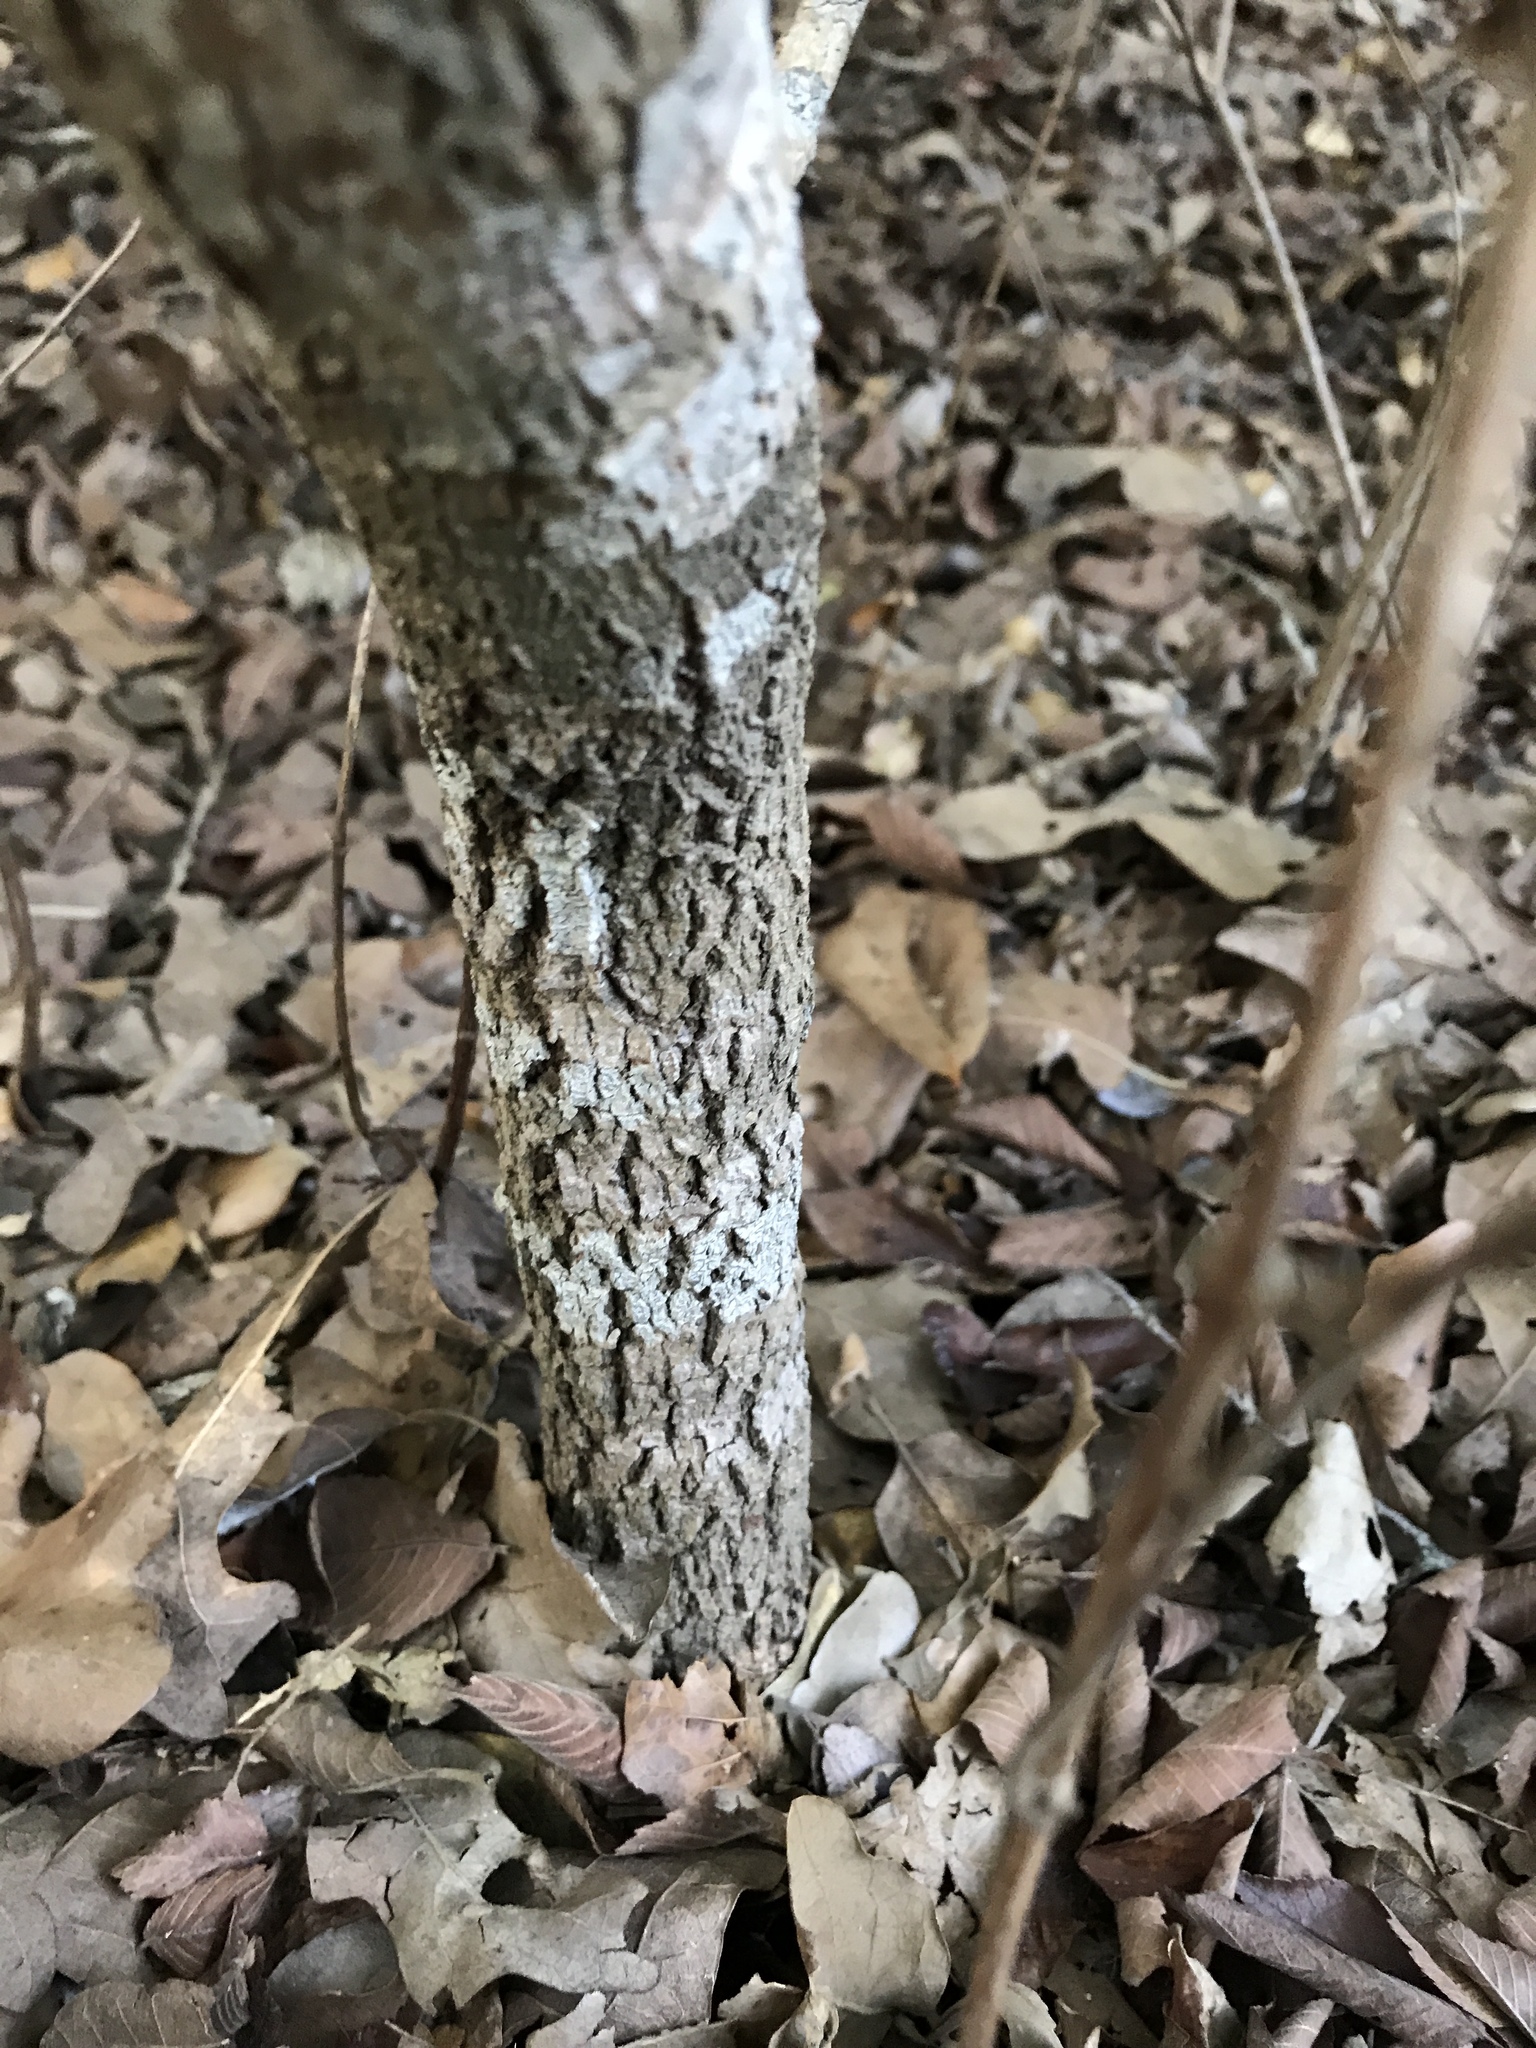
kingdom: Plantae
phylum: Tracheophyta
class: Magnoliopsida
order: Dipsacales
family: Viburnaceae
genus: Viburnum
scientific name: Viburnum rufidulum
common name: Blue haw
